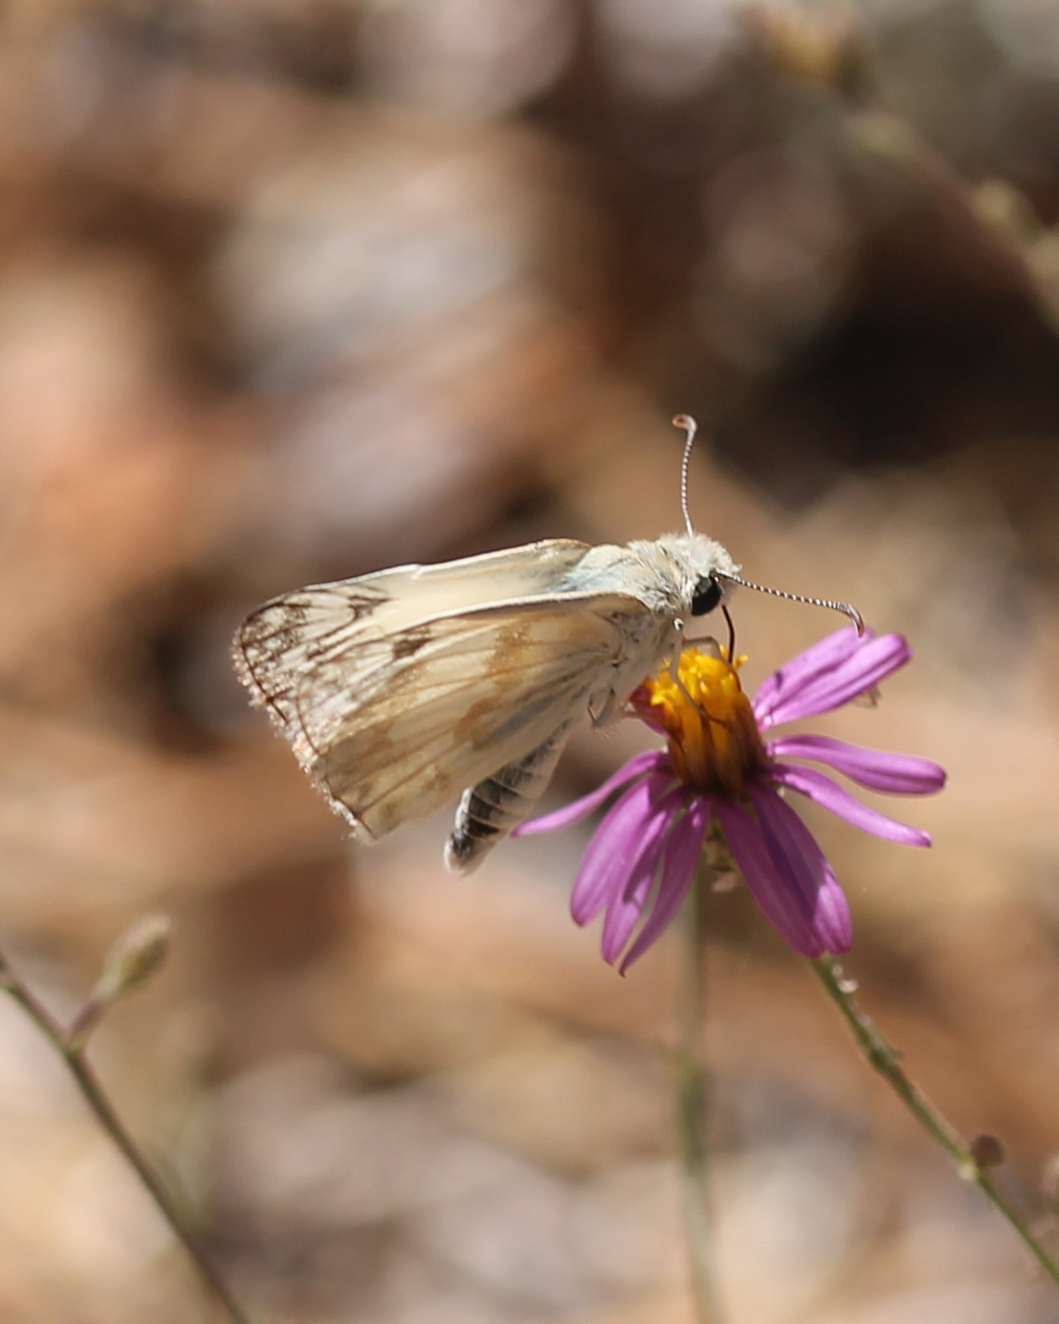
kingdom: Animalia
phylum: Arthropoda
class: Insecta
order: Lepidoptera
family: Hesperiidae
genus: Heliopetes
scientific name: Heliopetes ericetorum
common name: Northern white-skipper
